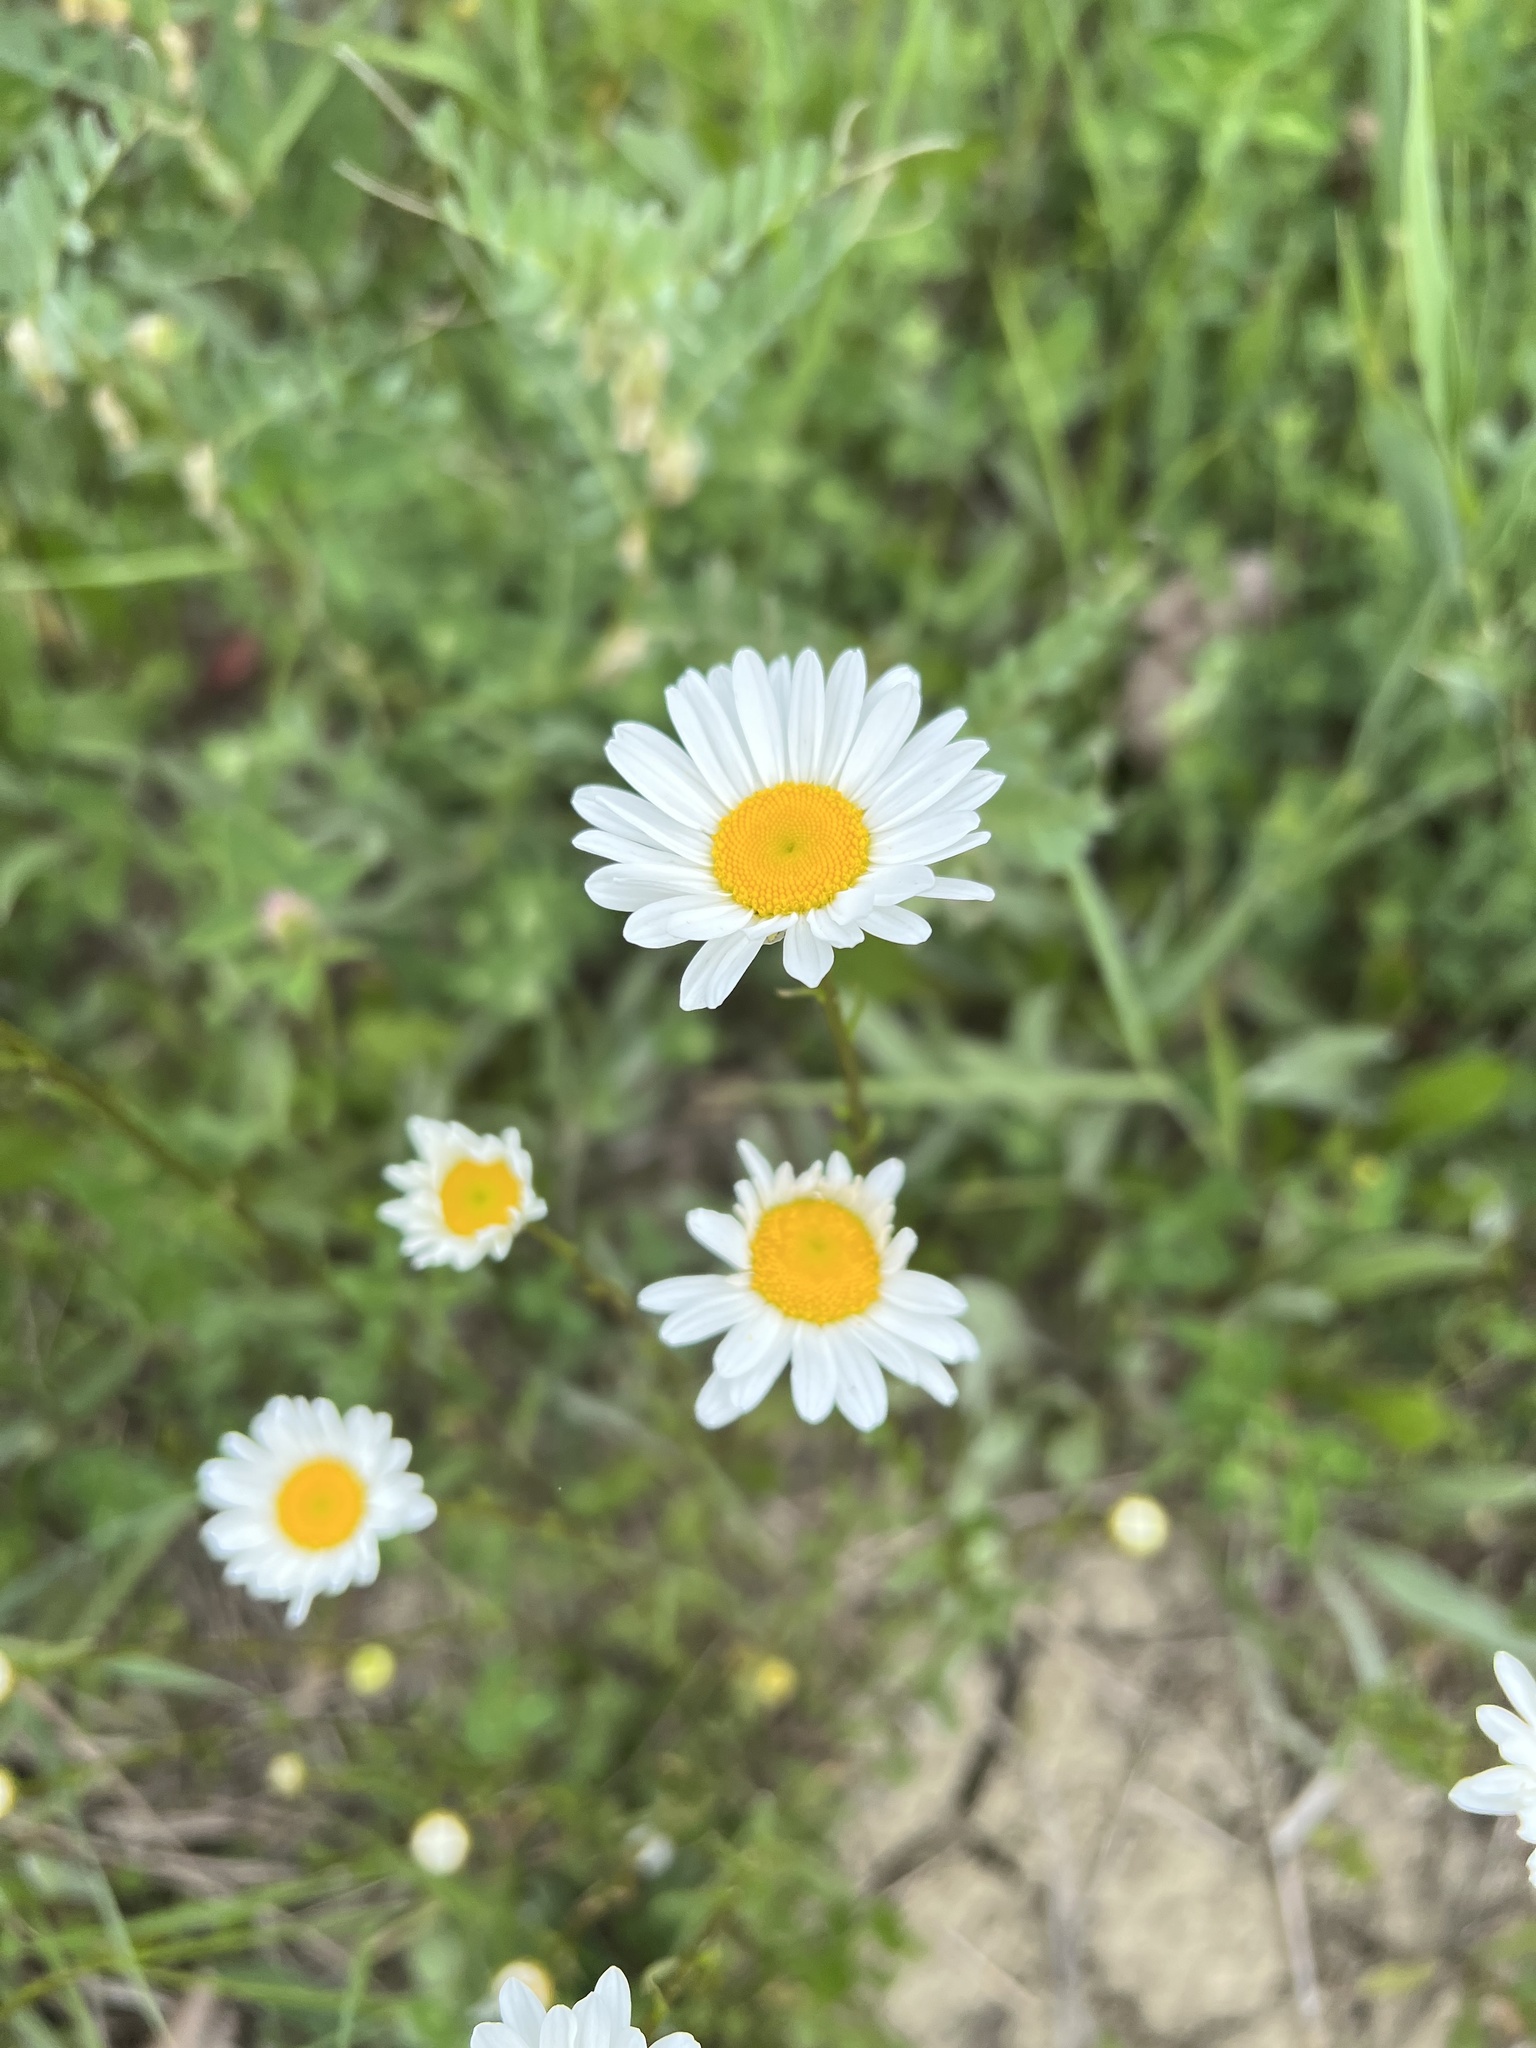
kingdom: Plantae
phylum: Tracheophyta
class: Magnoliopsida
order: Asterales
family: Asteraceae
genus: Leucanthemum
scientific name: Leucanthemum vulgare
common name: Oxeye daisy
